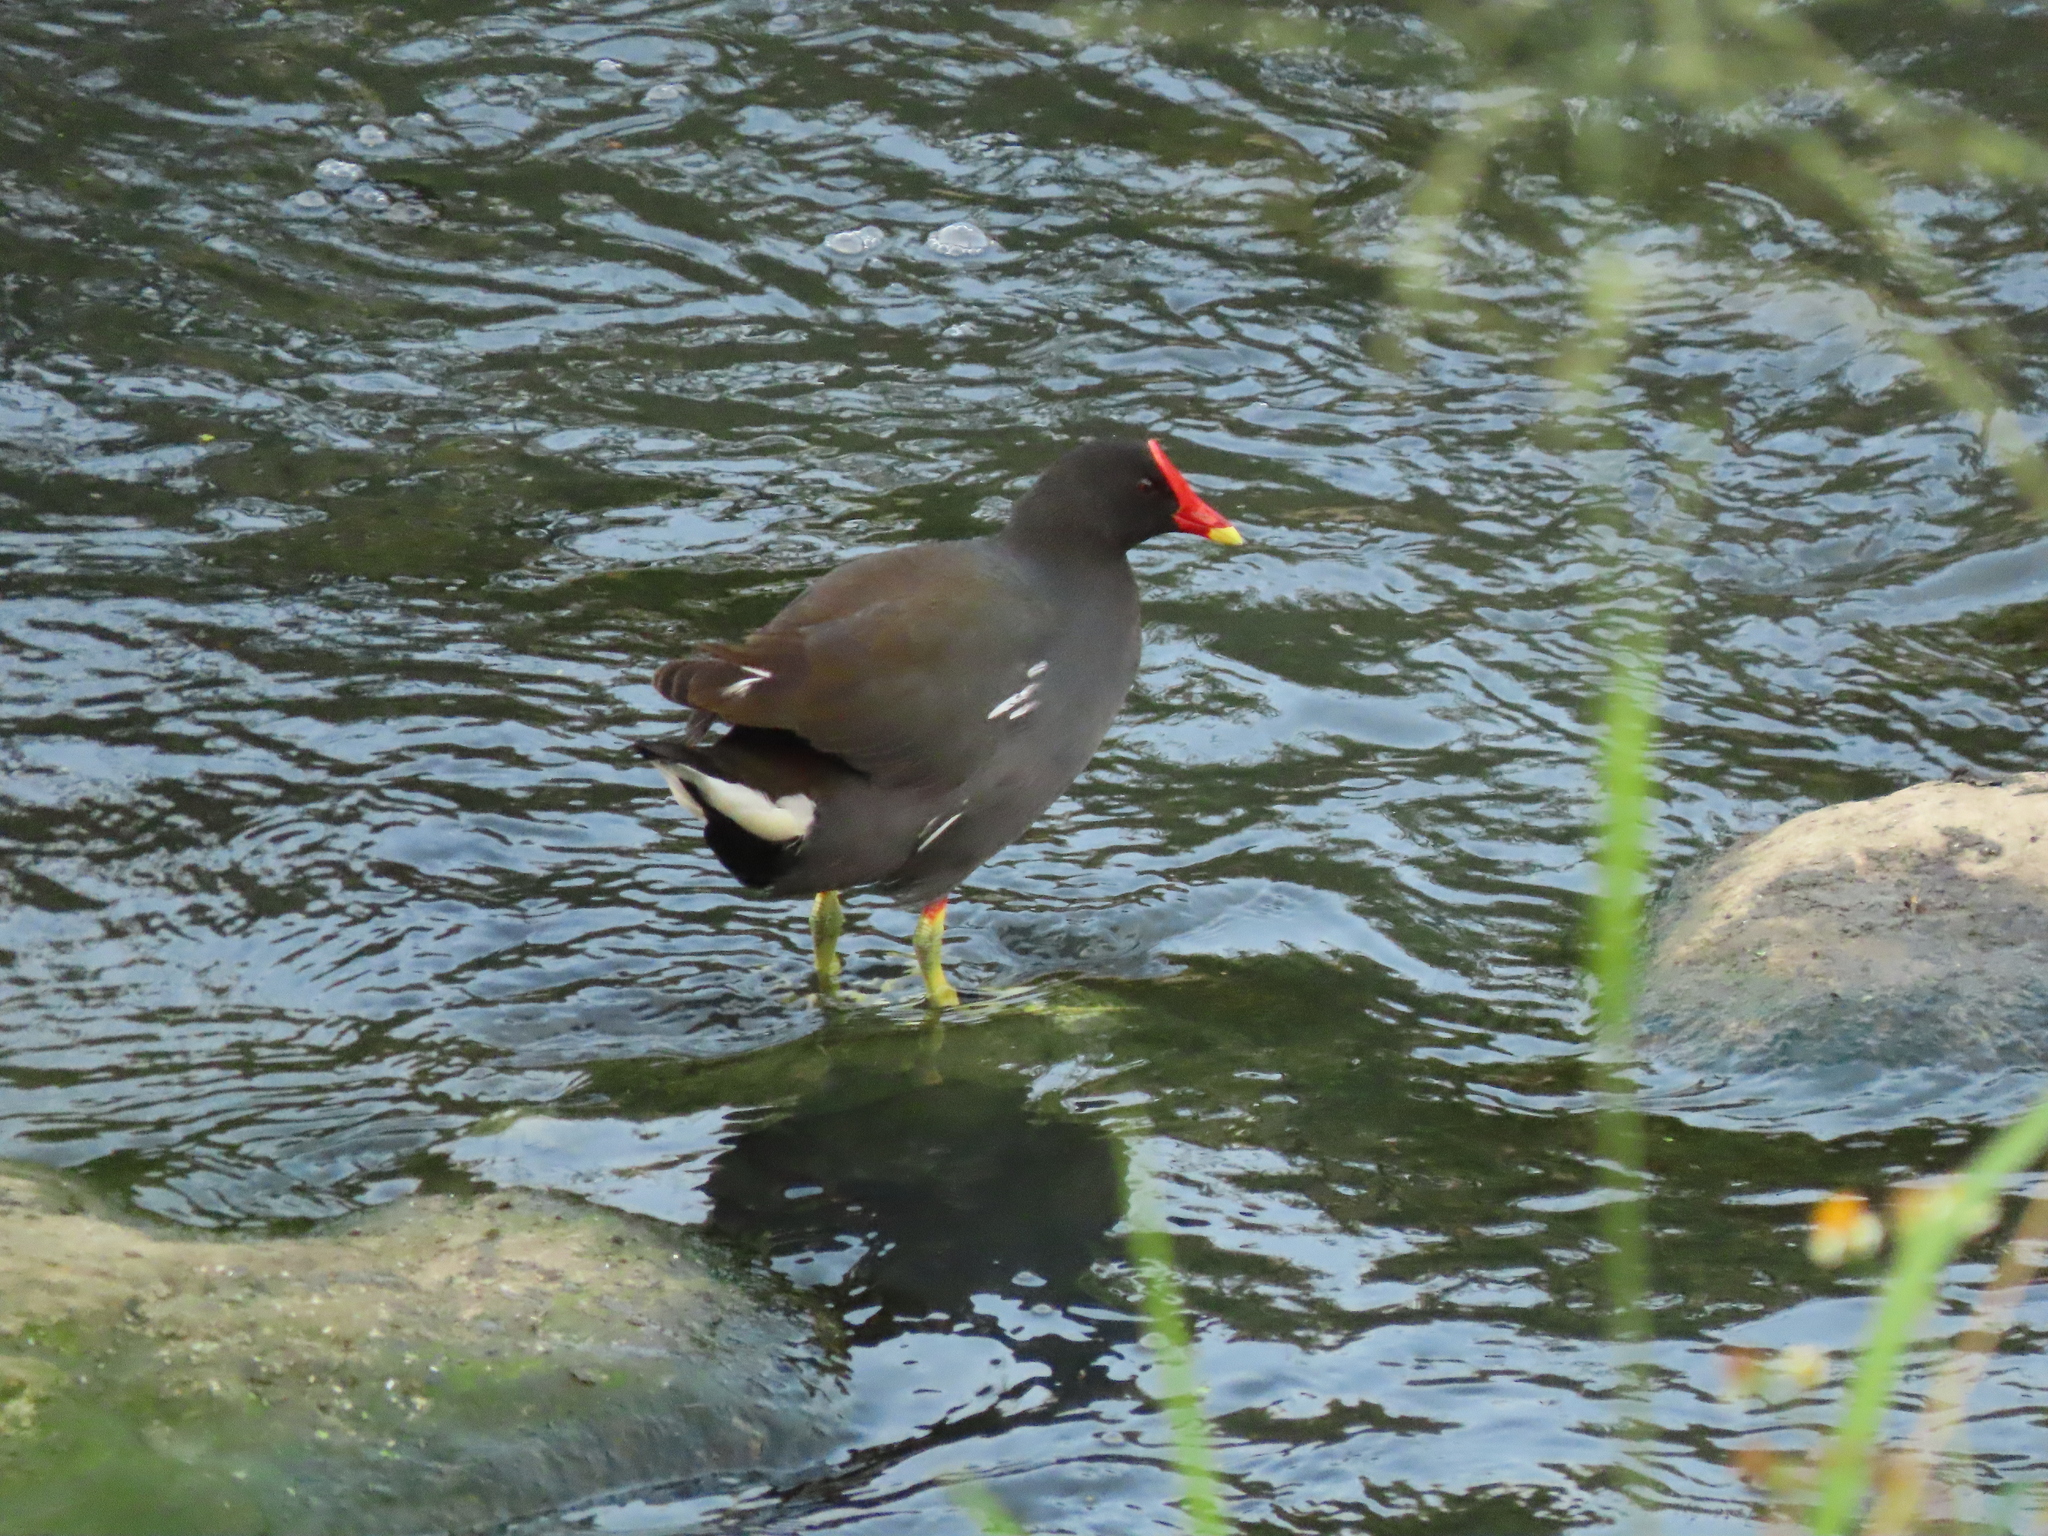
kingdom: Animalia
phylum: Chordata
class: Aves
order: Gruiformes
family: Rallidae
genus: Gallinula
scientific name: Gallinula chloropus
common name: Common moorhen
